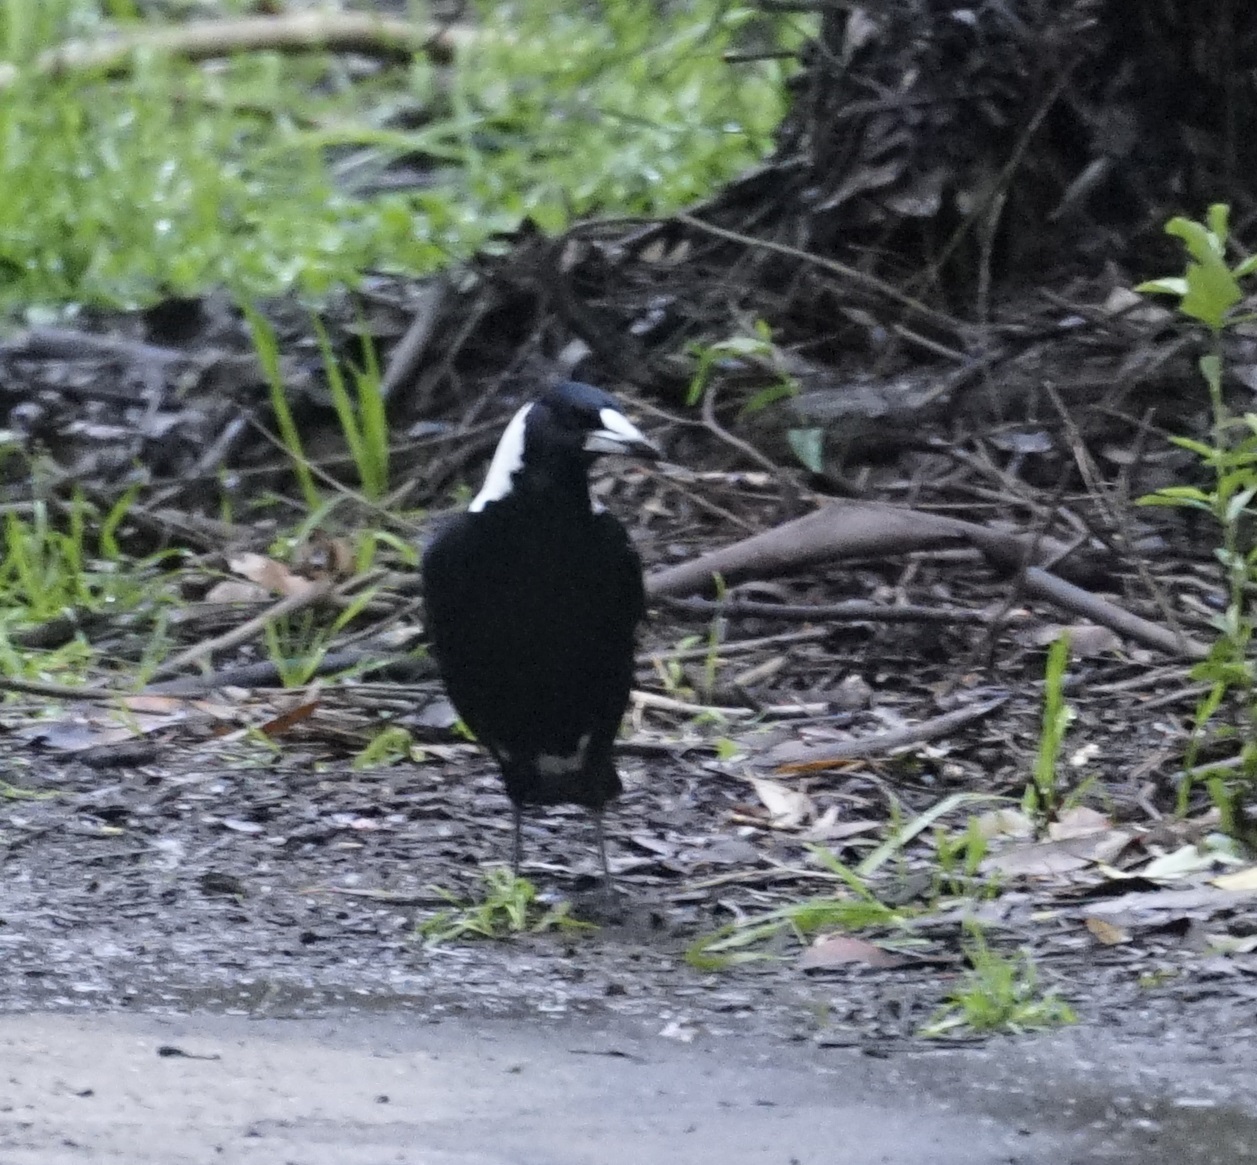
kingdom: Animalia
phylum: Chordata
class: Aves
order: Passeriformes
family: Cracticidae
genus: Gymnorhina
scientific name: Gymnorhina tibicen
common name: Australian magpie
